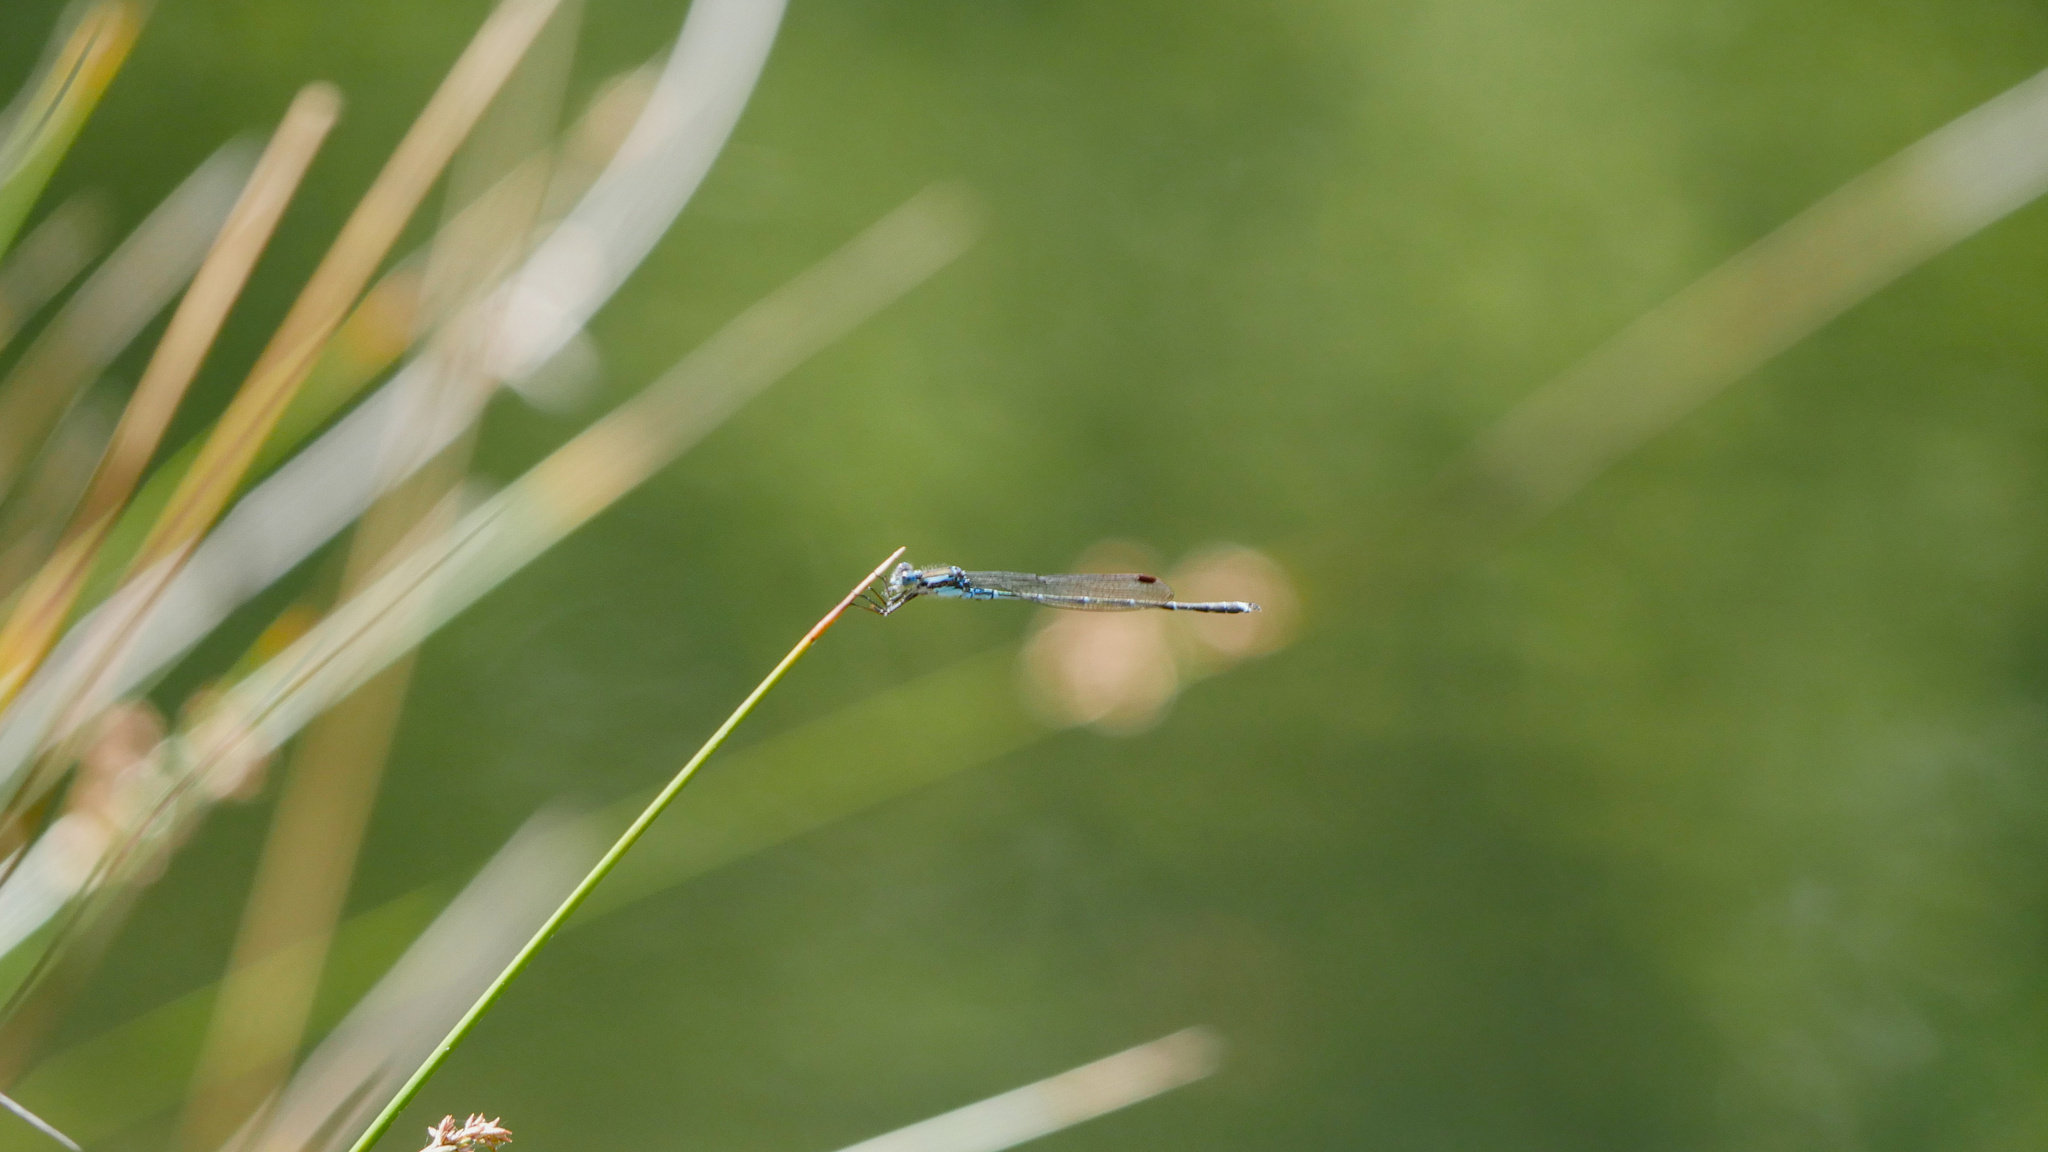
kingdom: Animalia
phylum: Arthropoda
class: Insecta
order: Odonata
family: Lestidae
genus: Austrolestes
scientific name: Austrolestes colensonis
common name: Blue damselfly
